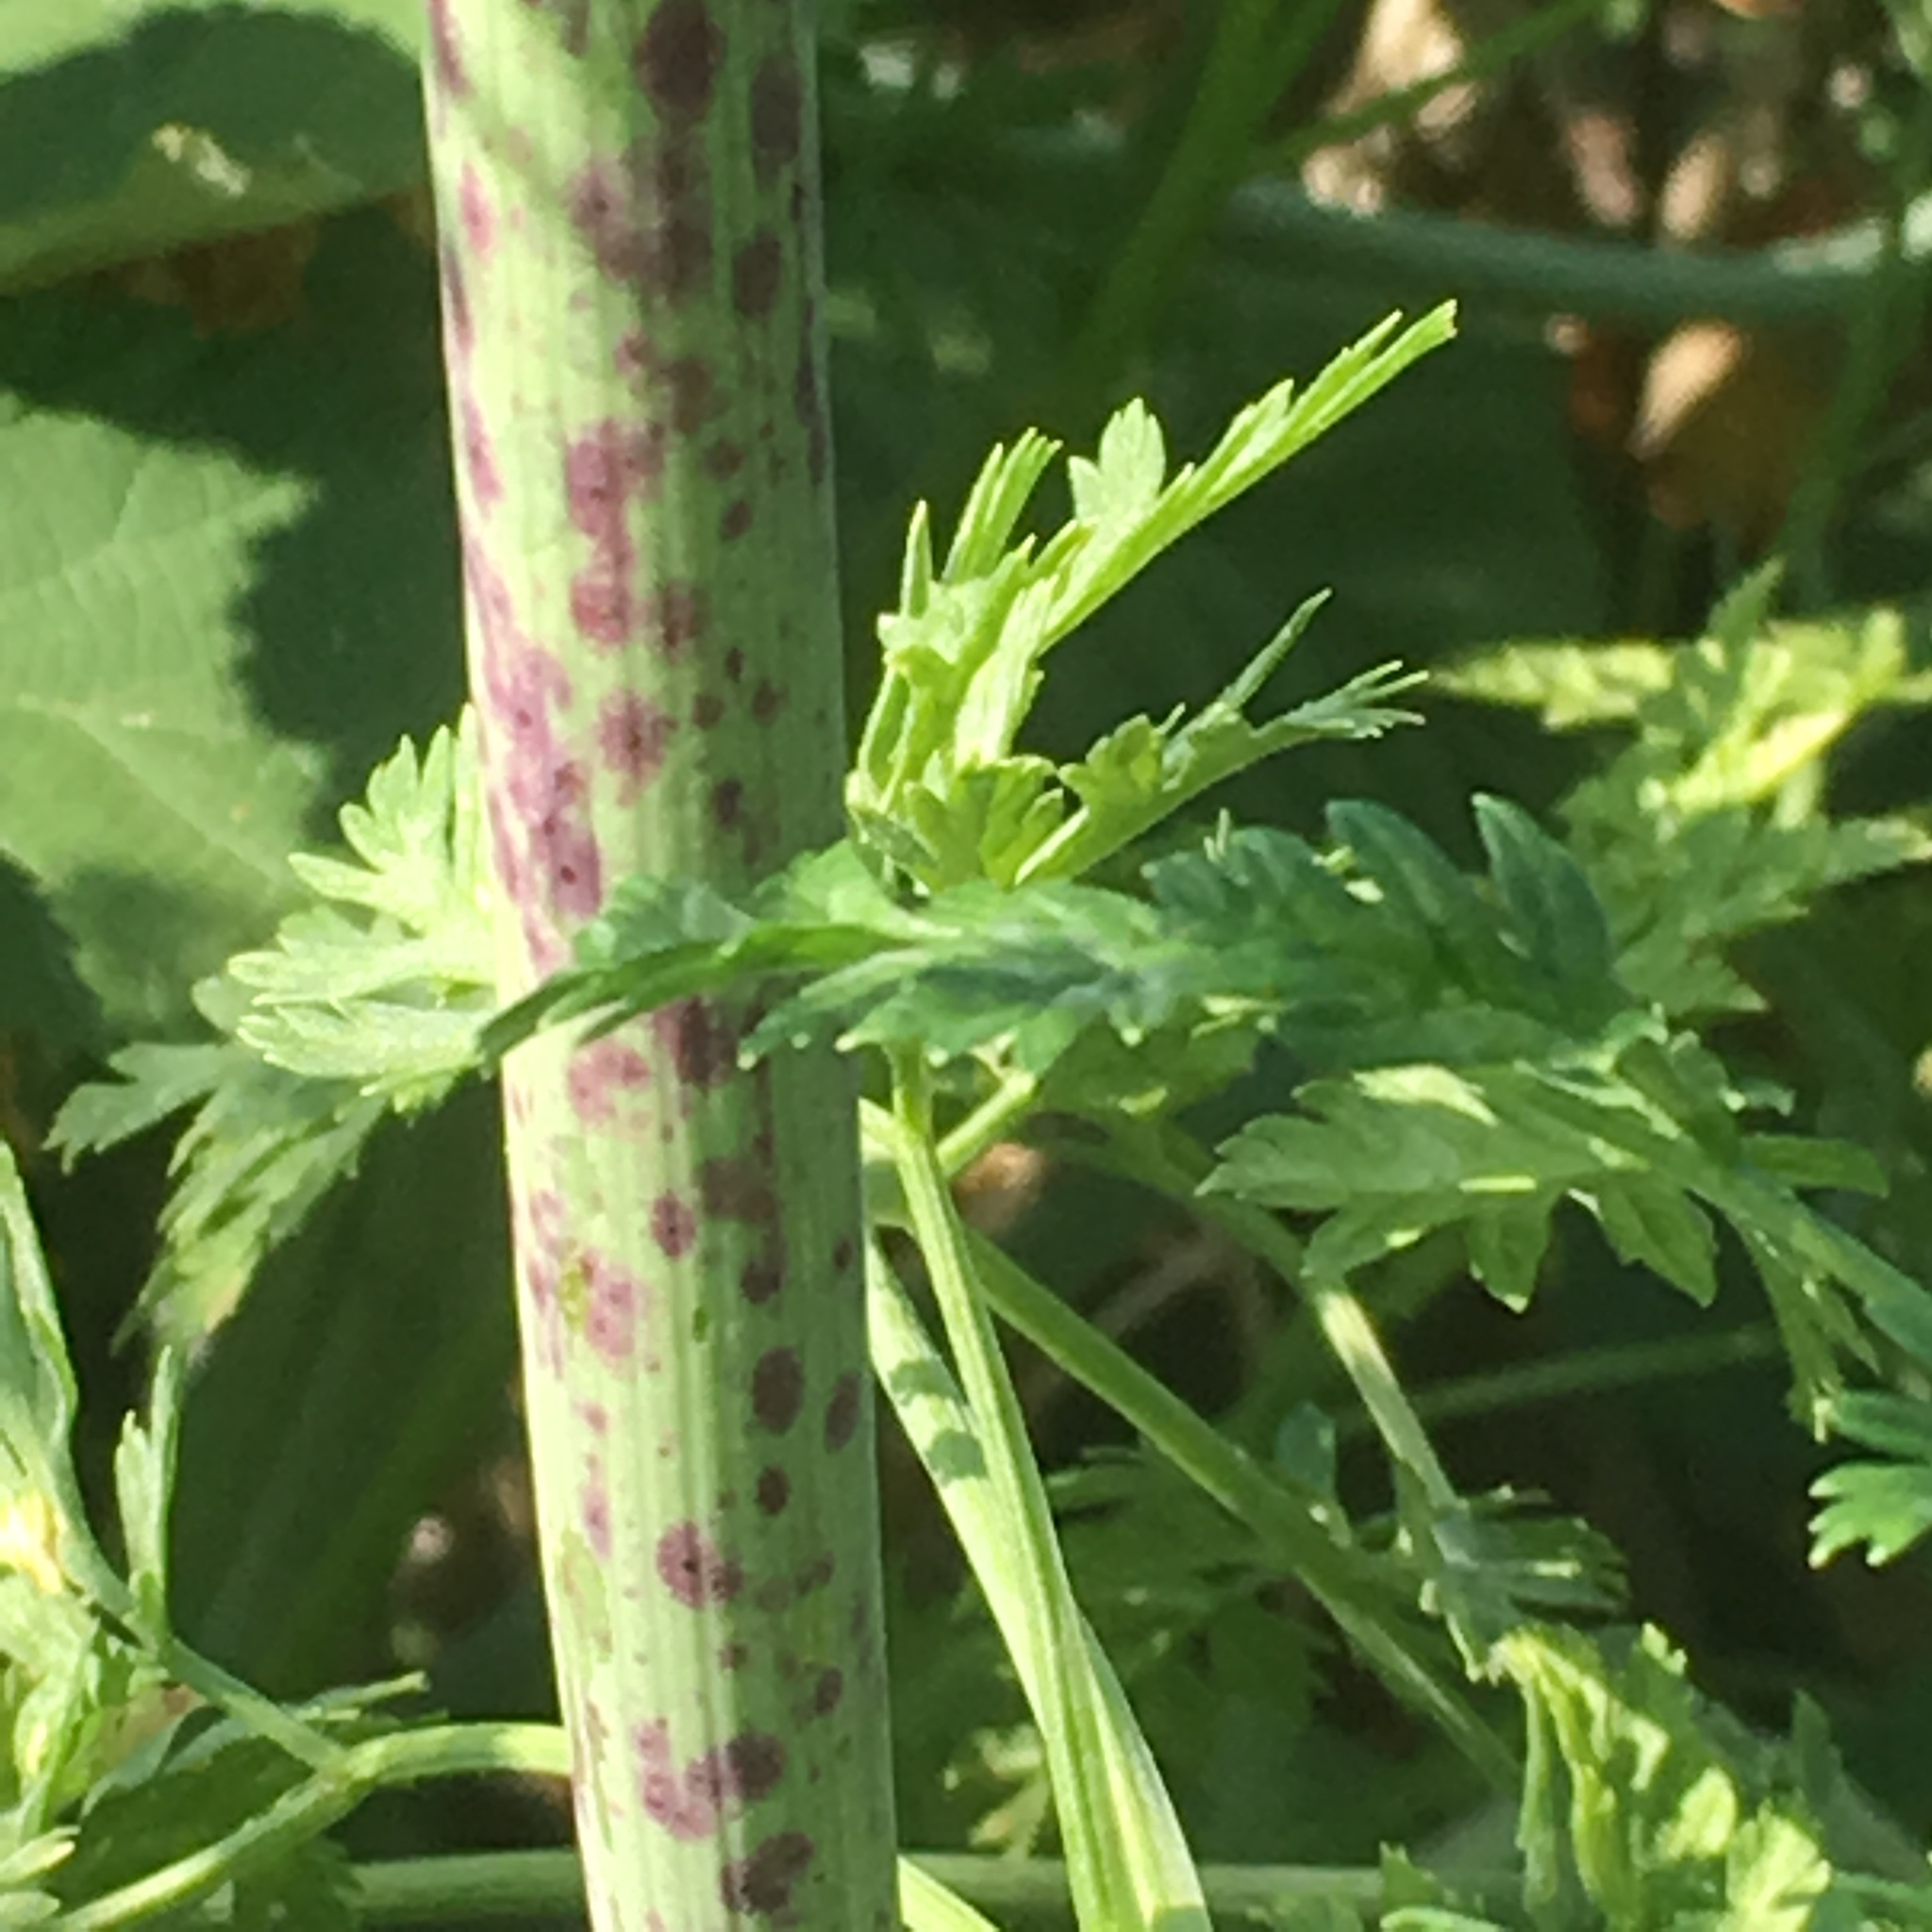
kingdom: Plantae
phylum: Tracheophyta
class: Magnoliopsida
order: Apiales
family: Apiaceae
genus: Conium
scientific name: Conium maculatum
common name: Hemlock
